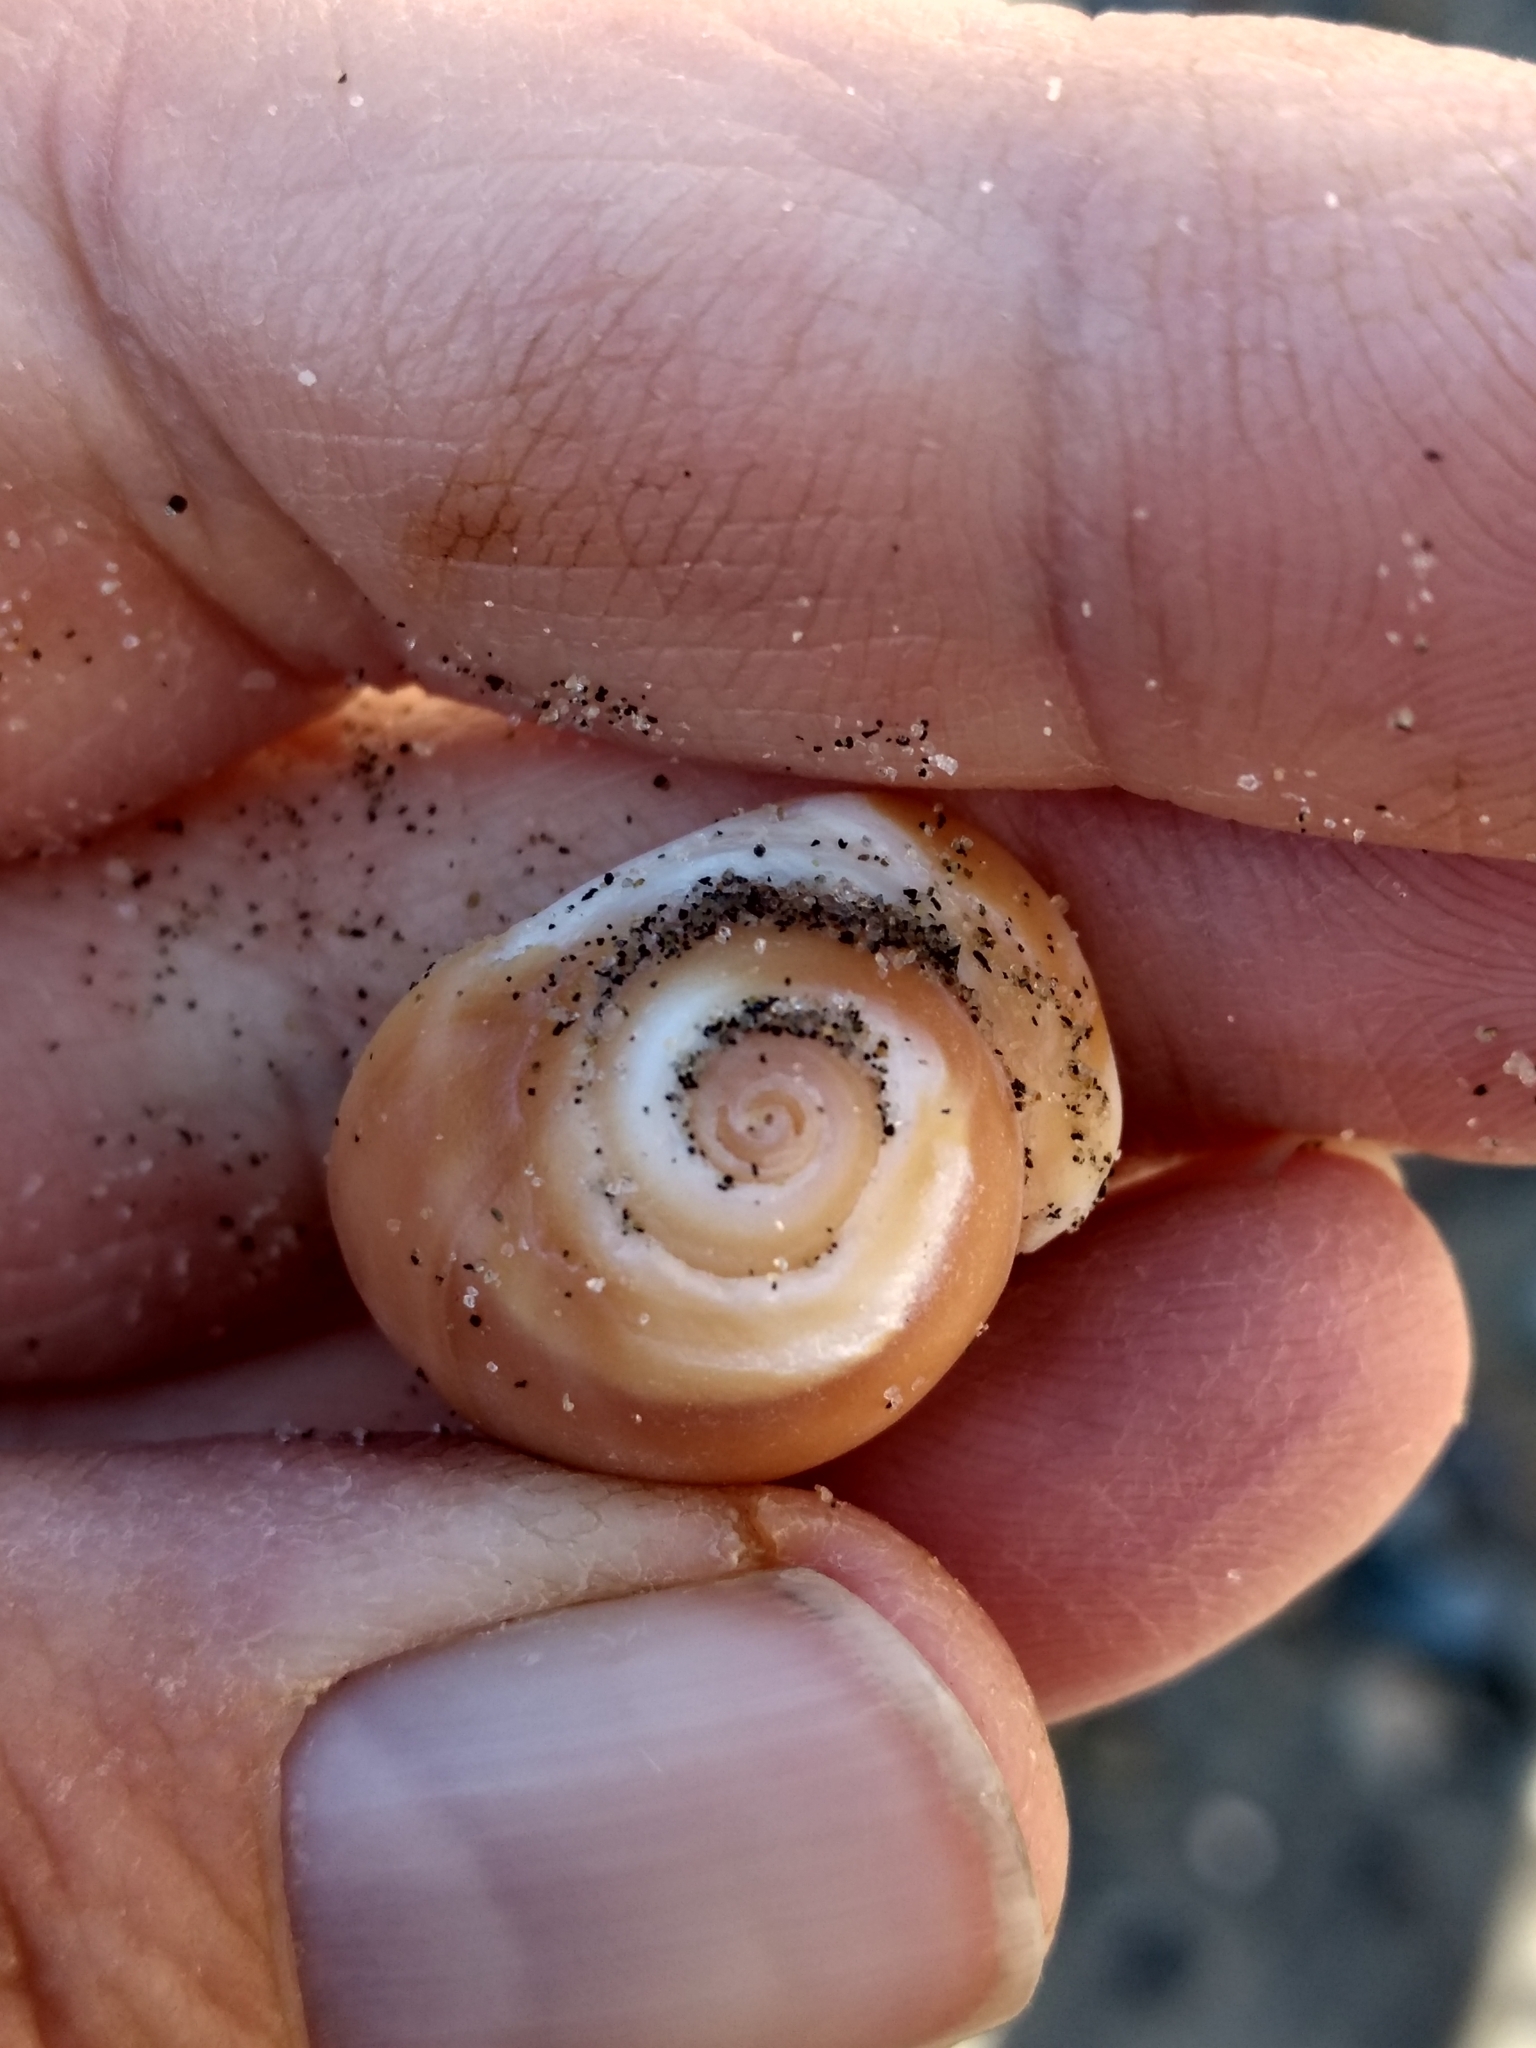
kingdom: Animalia
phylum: Mollusca
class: Gastropoda
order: Littorinimorpha
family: Naticidae
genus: Glossaulax
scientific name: Glossaulax reclusiana
